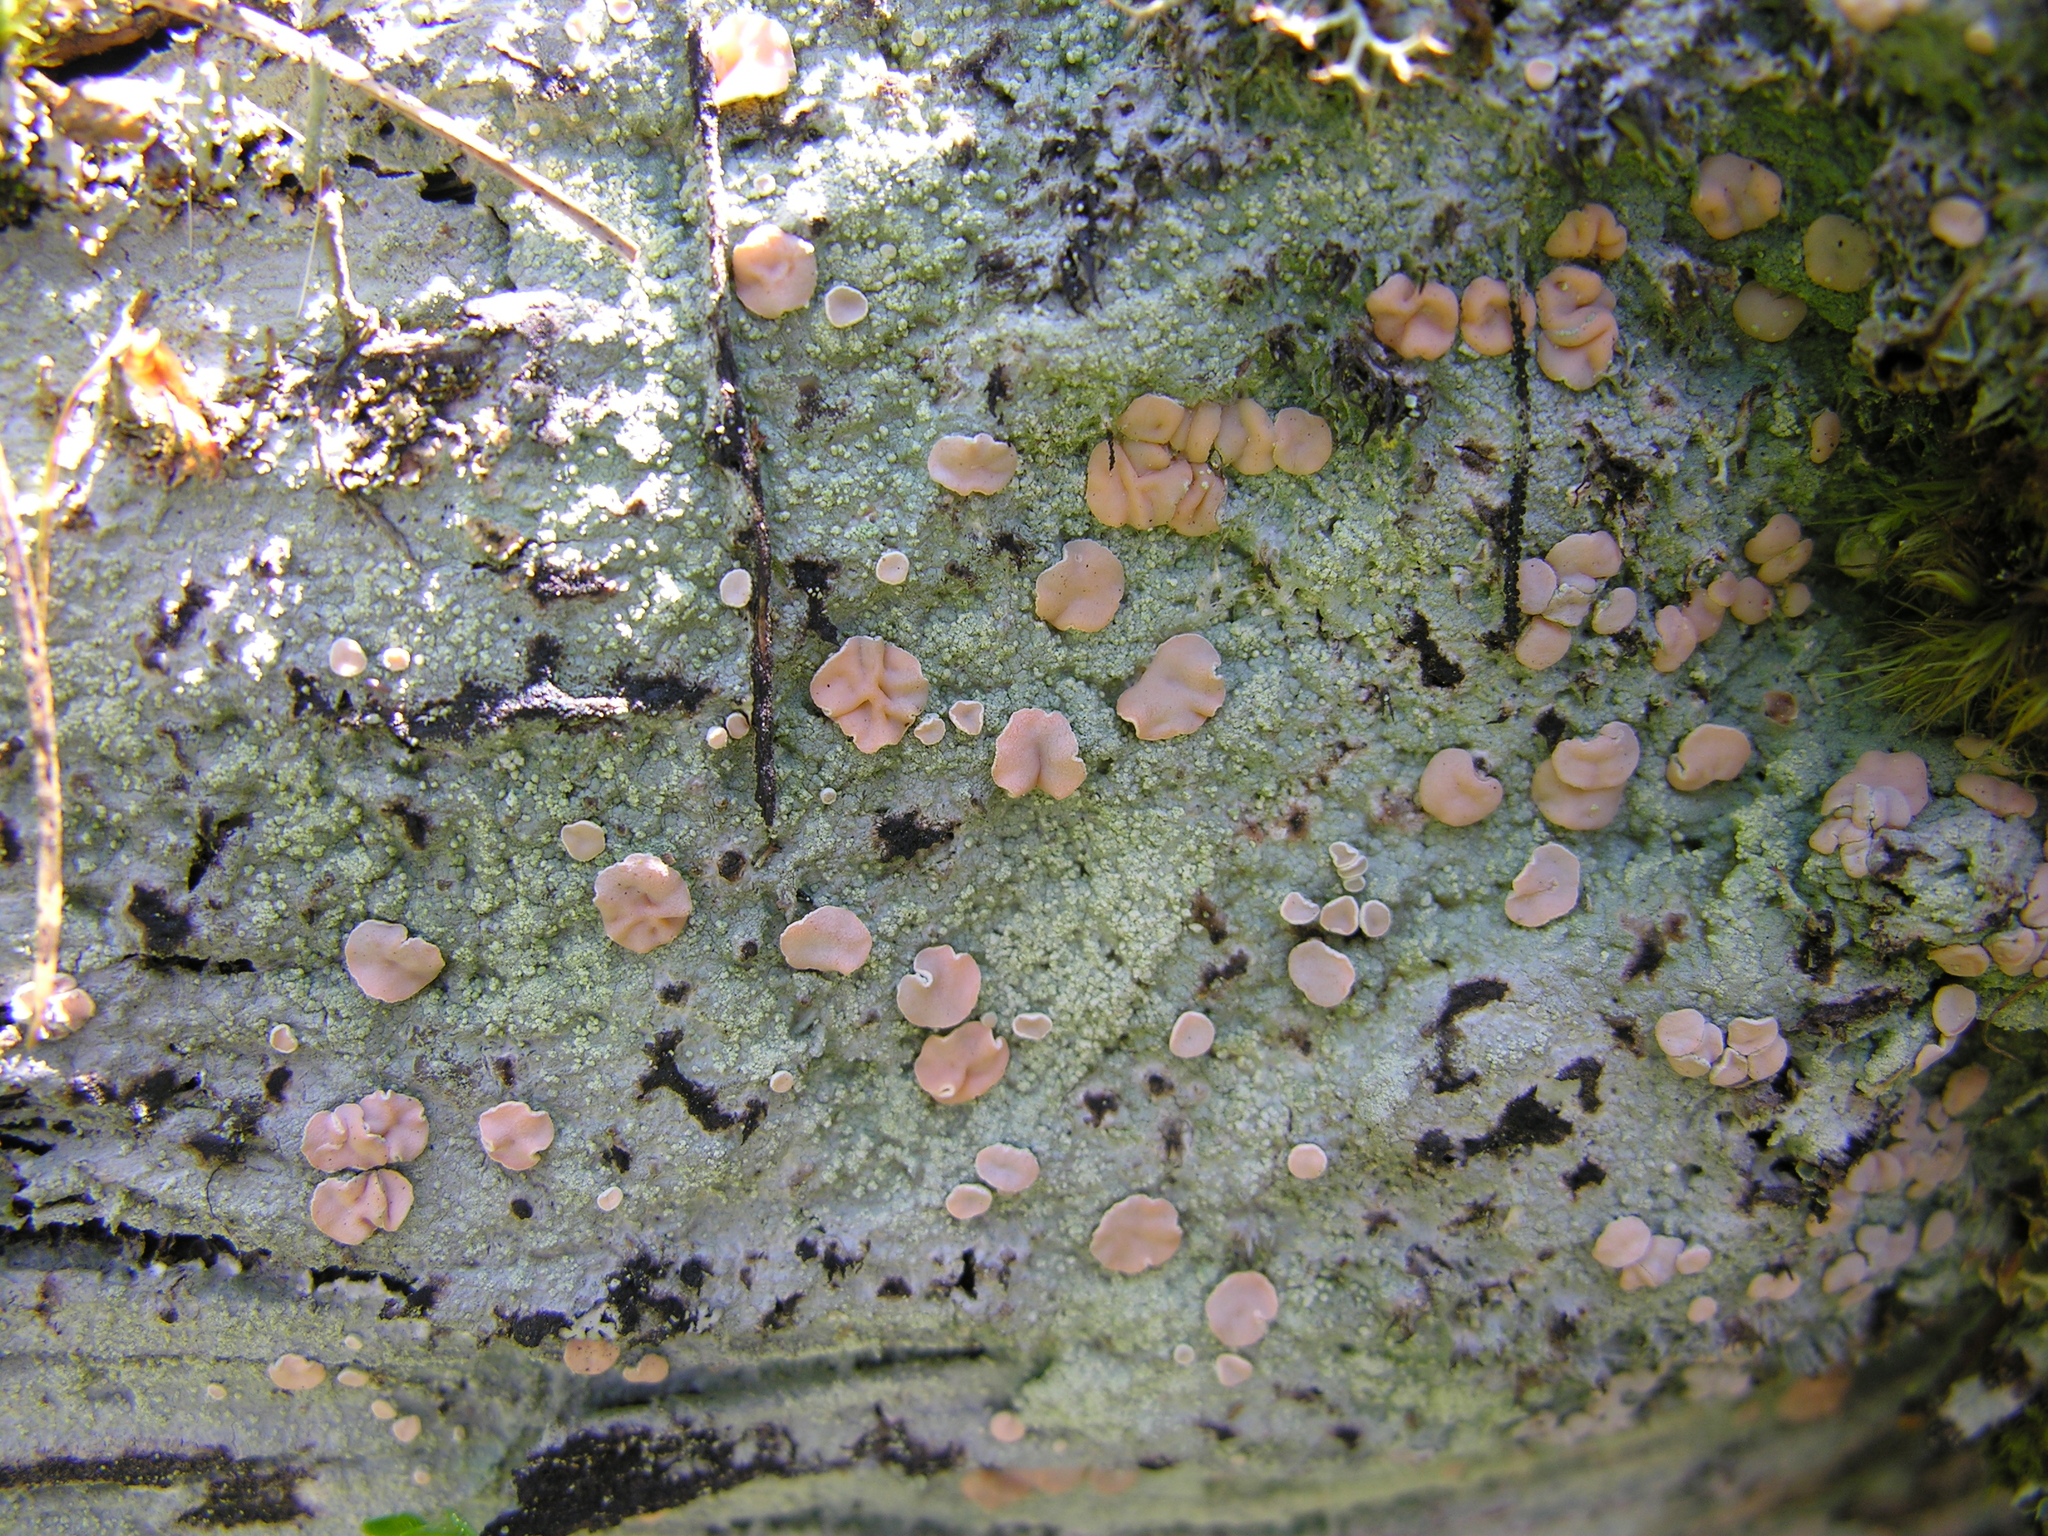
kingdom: Fungi
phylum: Ascomycota
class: Lecanoromycetes
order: Pertusariales
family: Icmadophilaceae
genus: Icmadophila
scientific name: Icmadophila ericetorum
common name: Candy lichen
